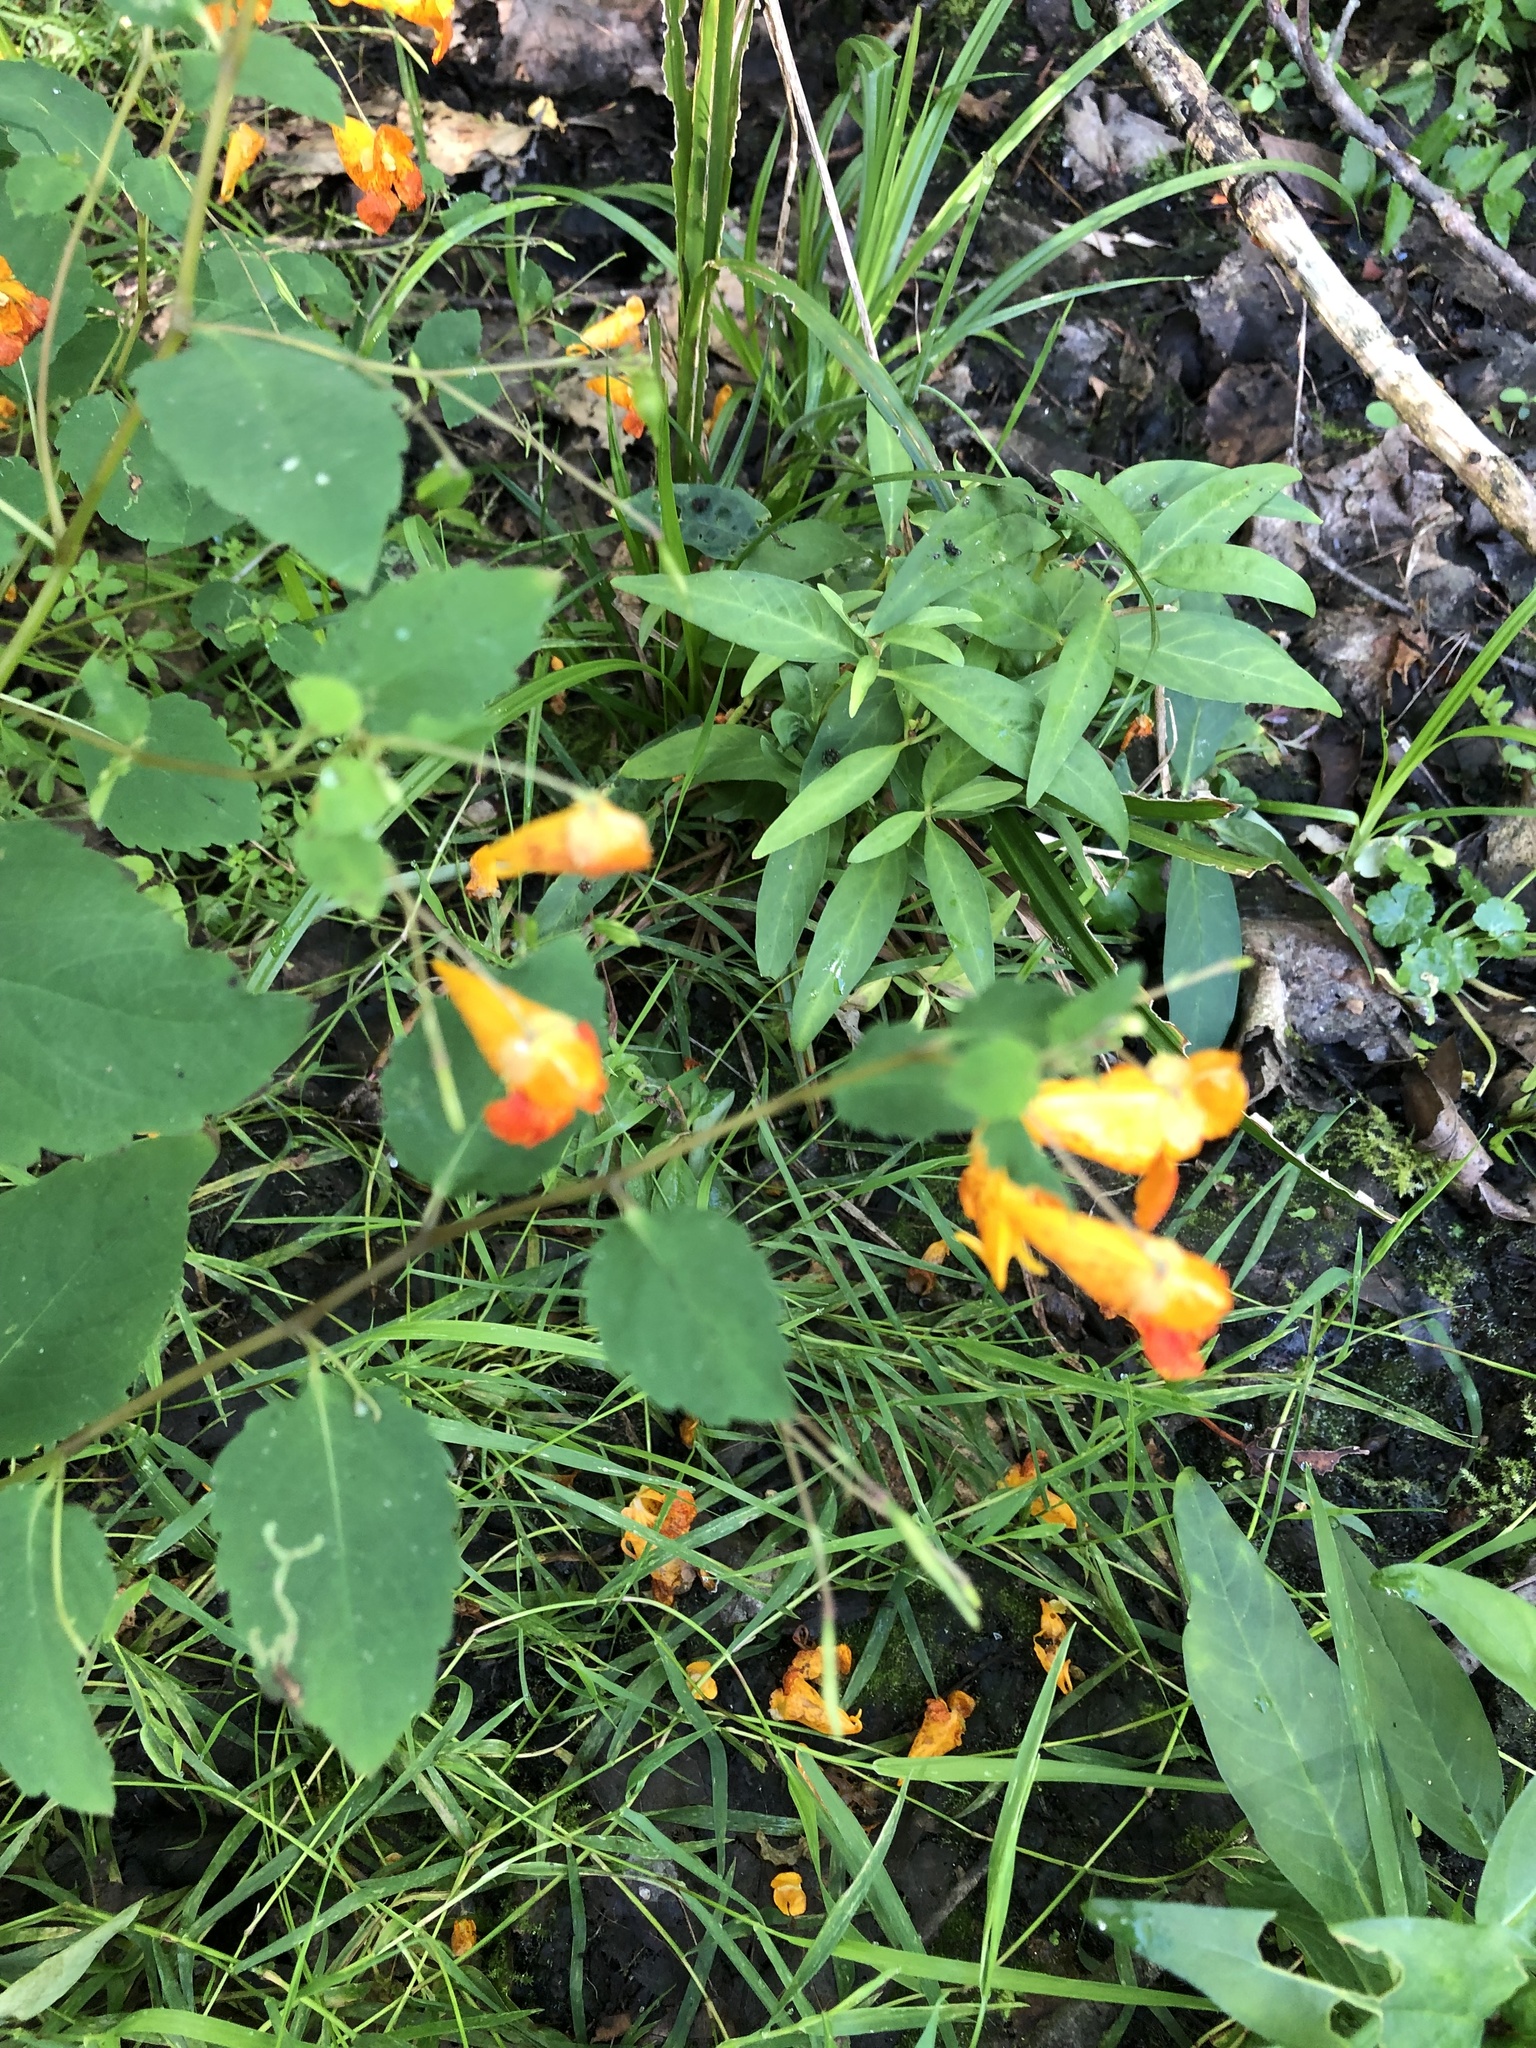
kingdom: Plantae
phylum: Tracheophyta
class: Magnoliopsida
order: Ericales
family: Balsaminaceae
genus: Impatiens
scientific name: Impatiens capensis
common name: Orange balsam
